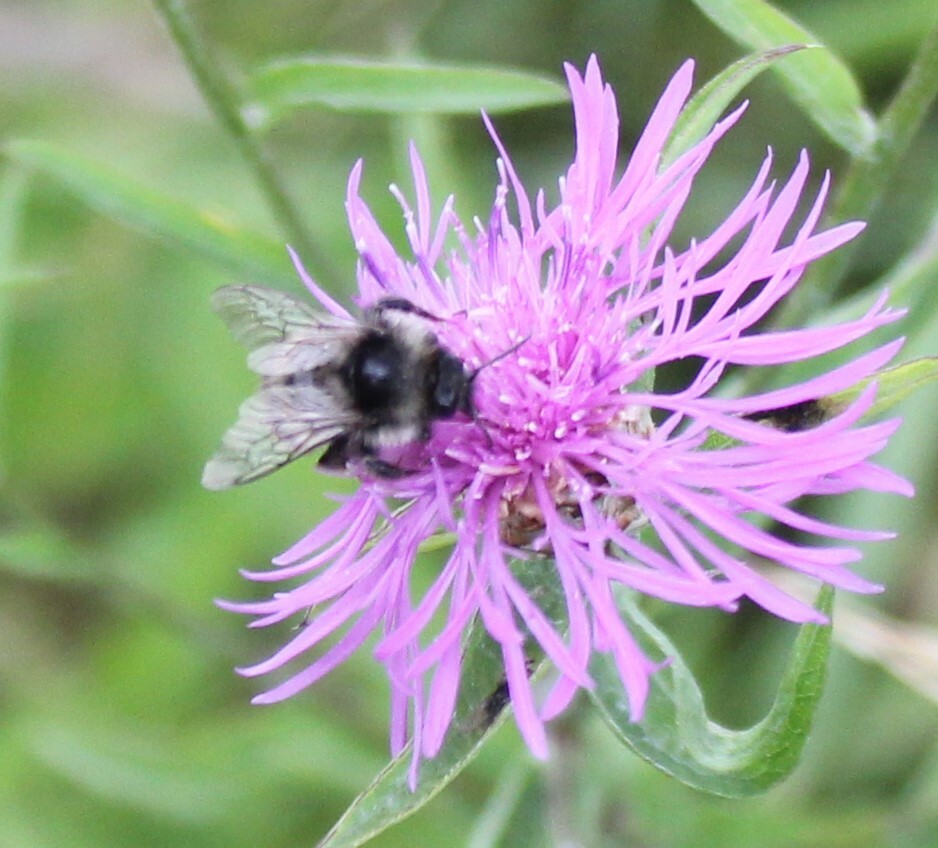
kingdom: Animalia
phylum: Arthropoda
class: Insecta
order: Hymenoptera
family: Apidae
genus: Bombus
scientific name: Bombus ruderarius
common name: Red-shanked carder-bee
